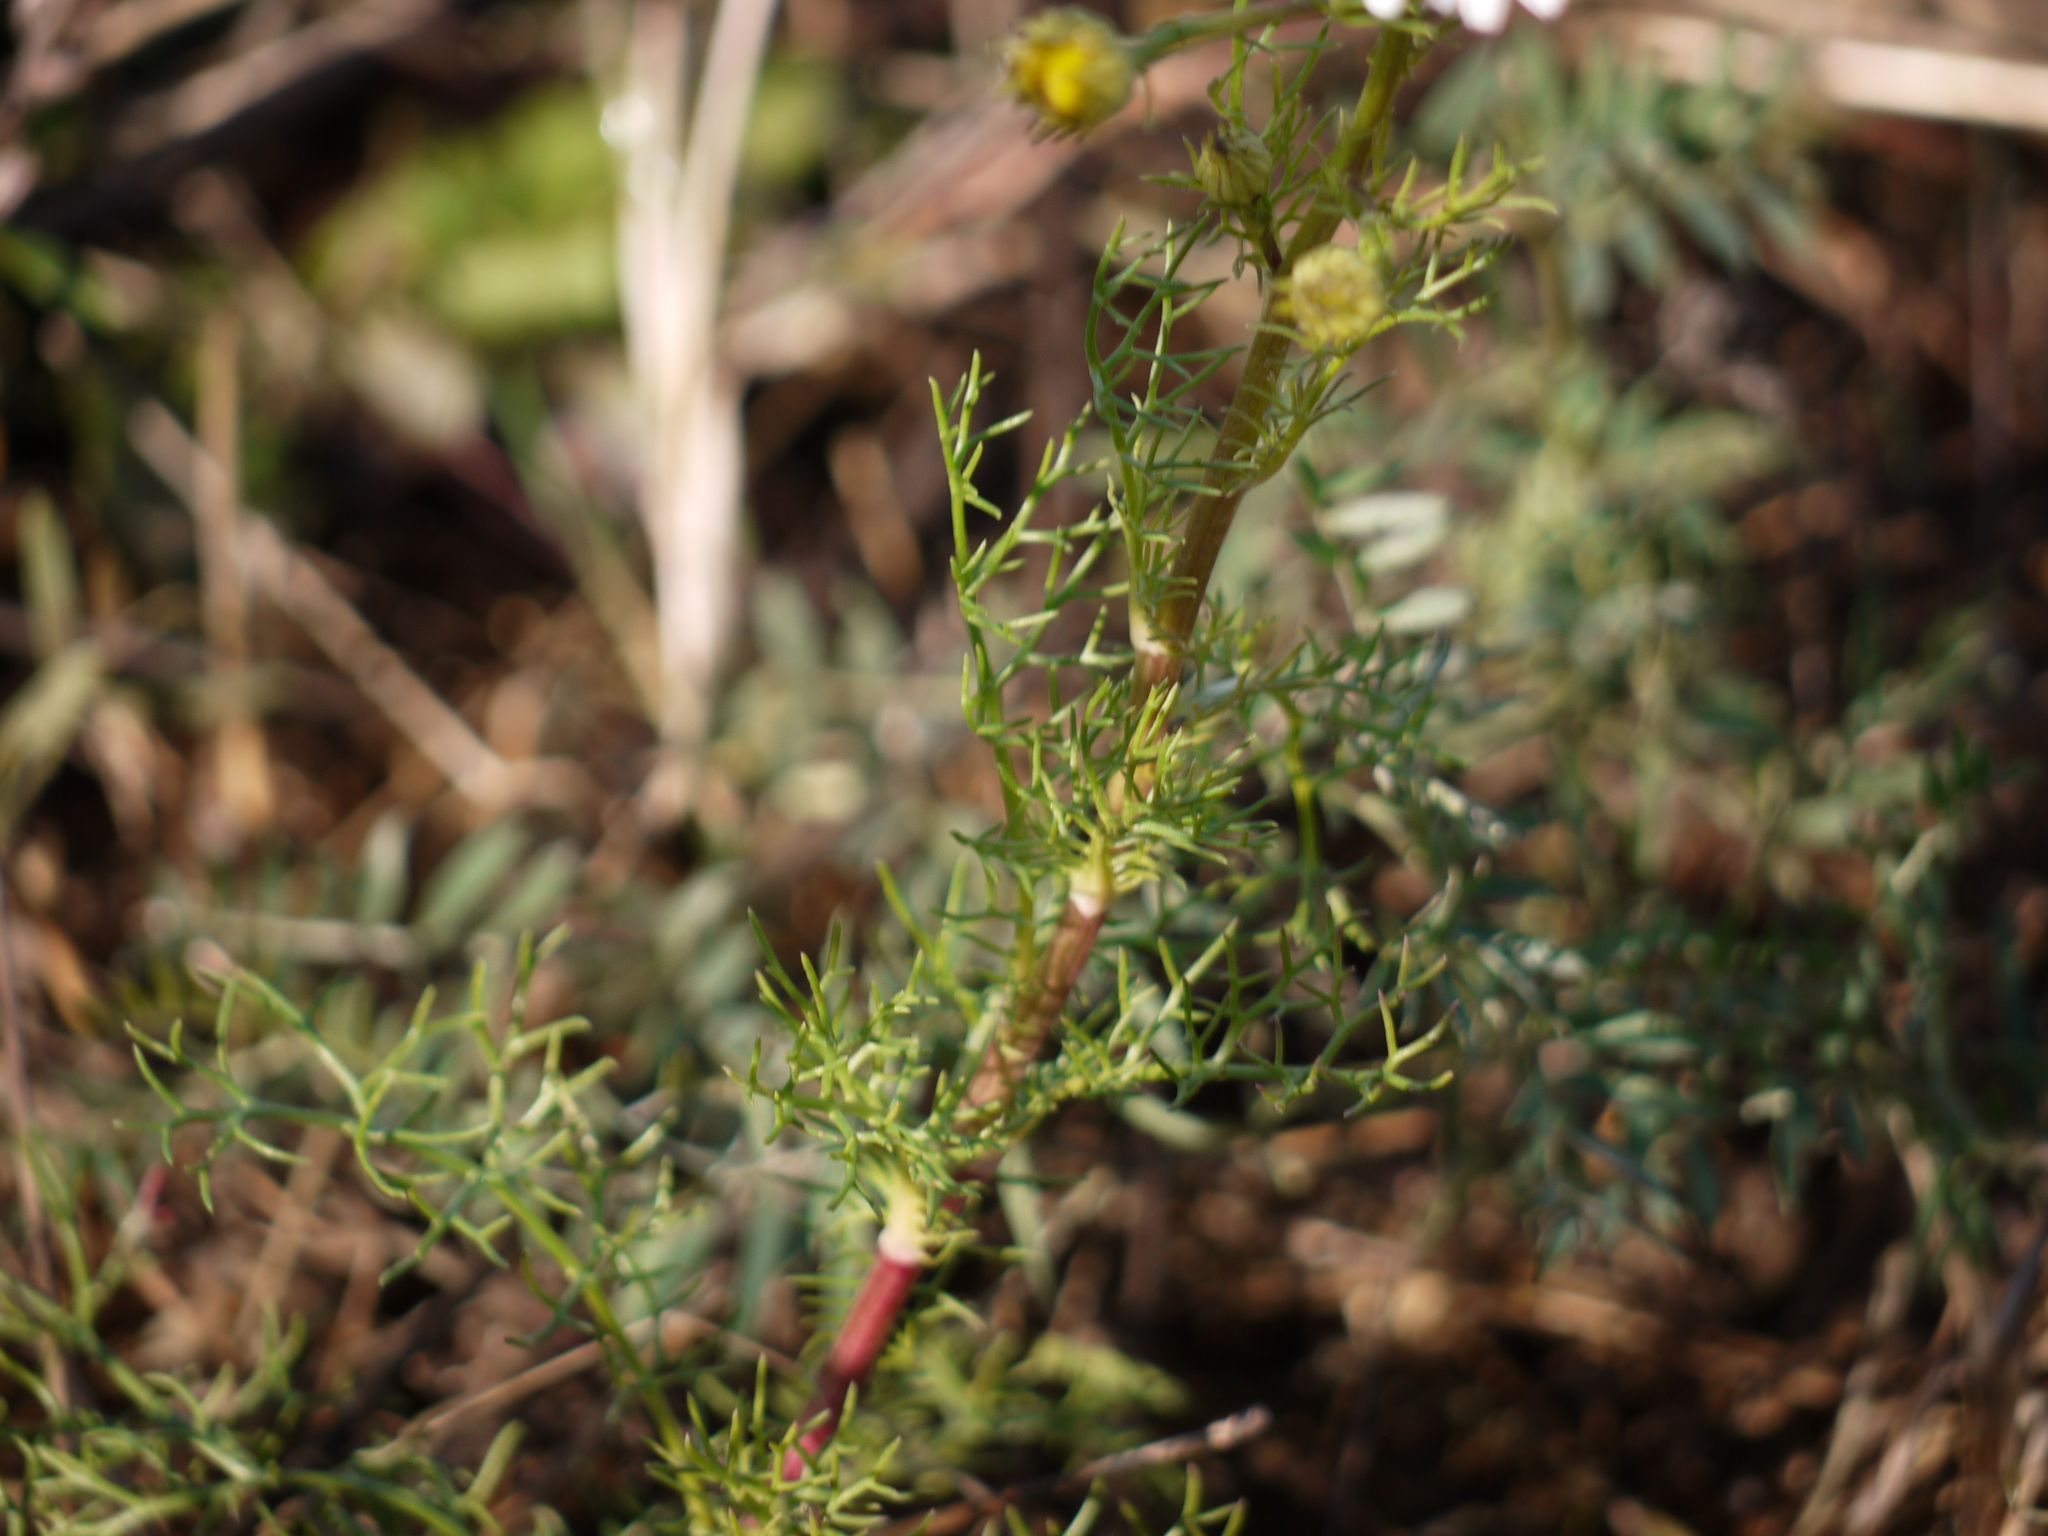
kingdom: Plantae
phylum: Tracheophyta
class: Magnoliopsida
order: Asterales
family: Asteraceae
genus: Tripleurospermum
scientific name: Tripleurospermum inodorum
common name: Scentless mayweed
